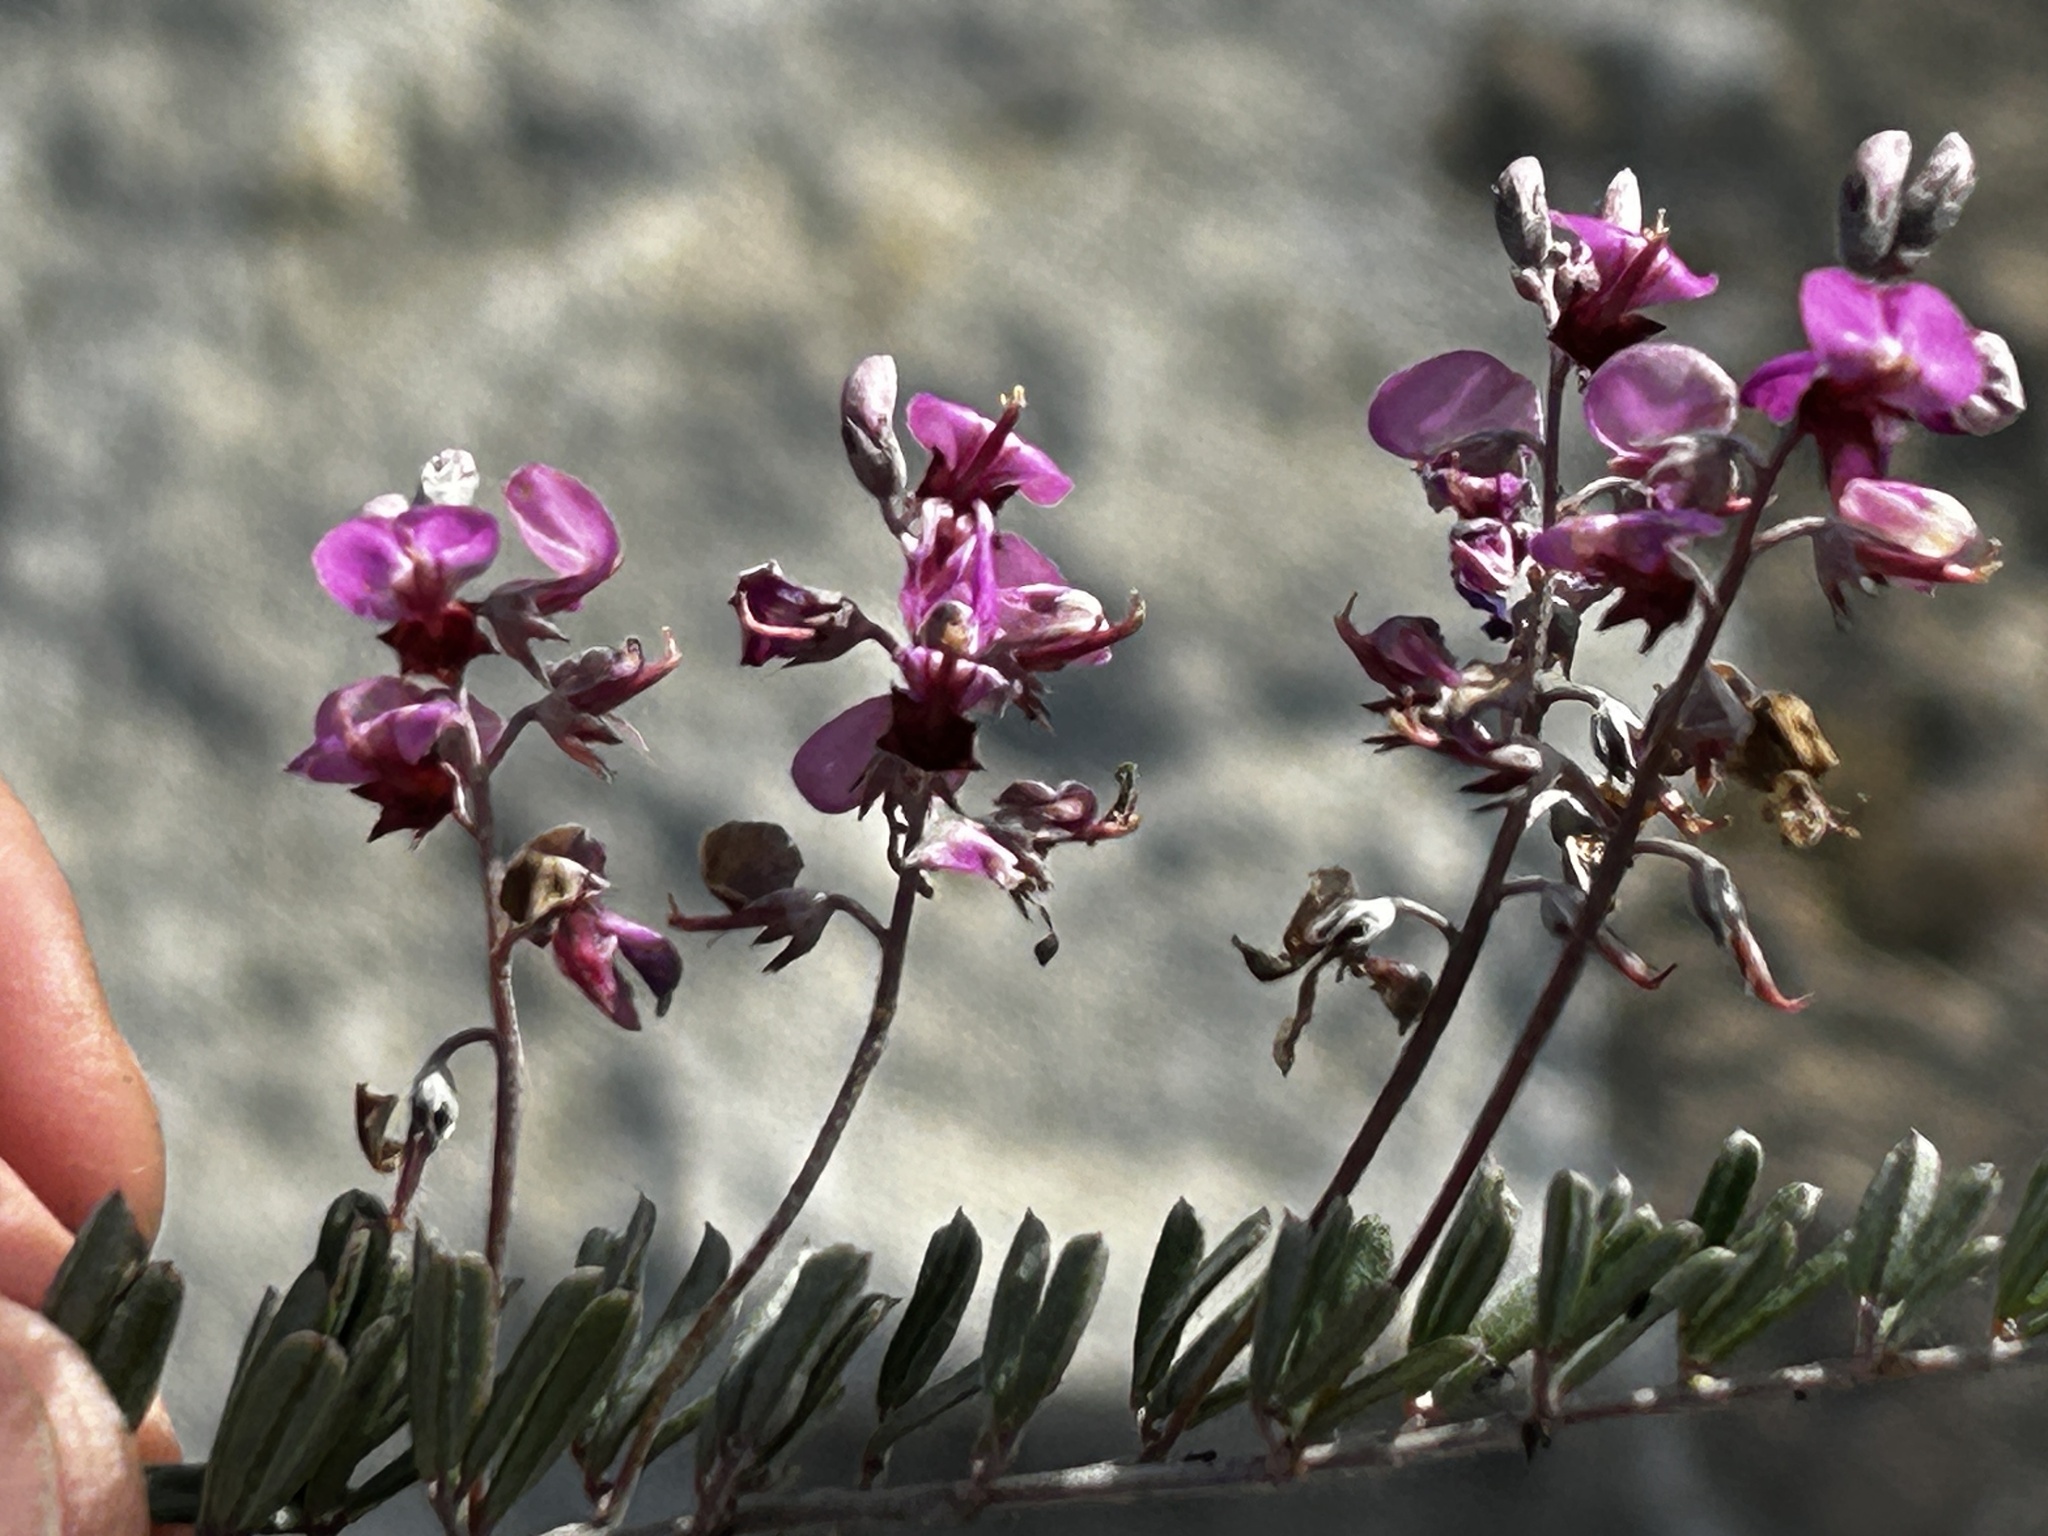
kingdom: Plantae
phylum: Tracheophyta
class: Magnoliopsida
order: Fabales
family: Fabaceae
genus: Indigofera
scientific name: Indigofera
